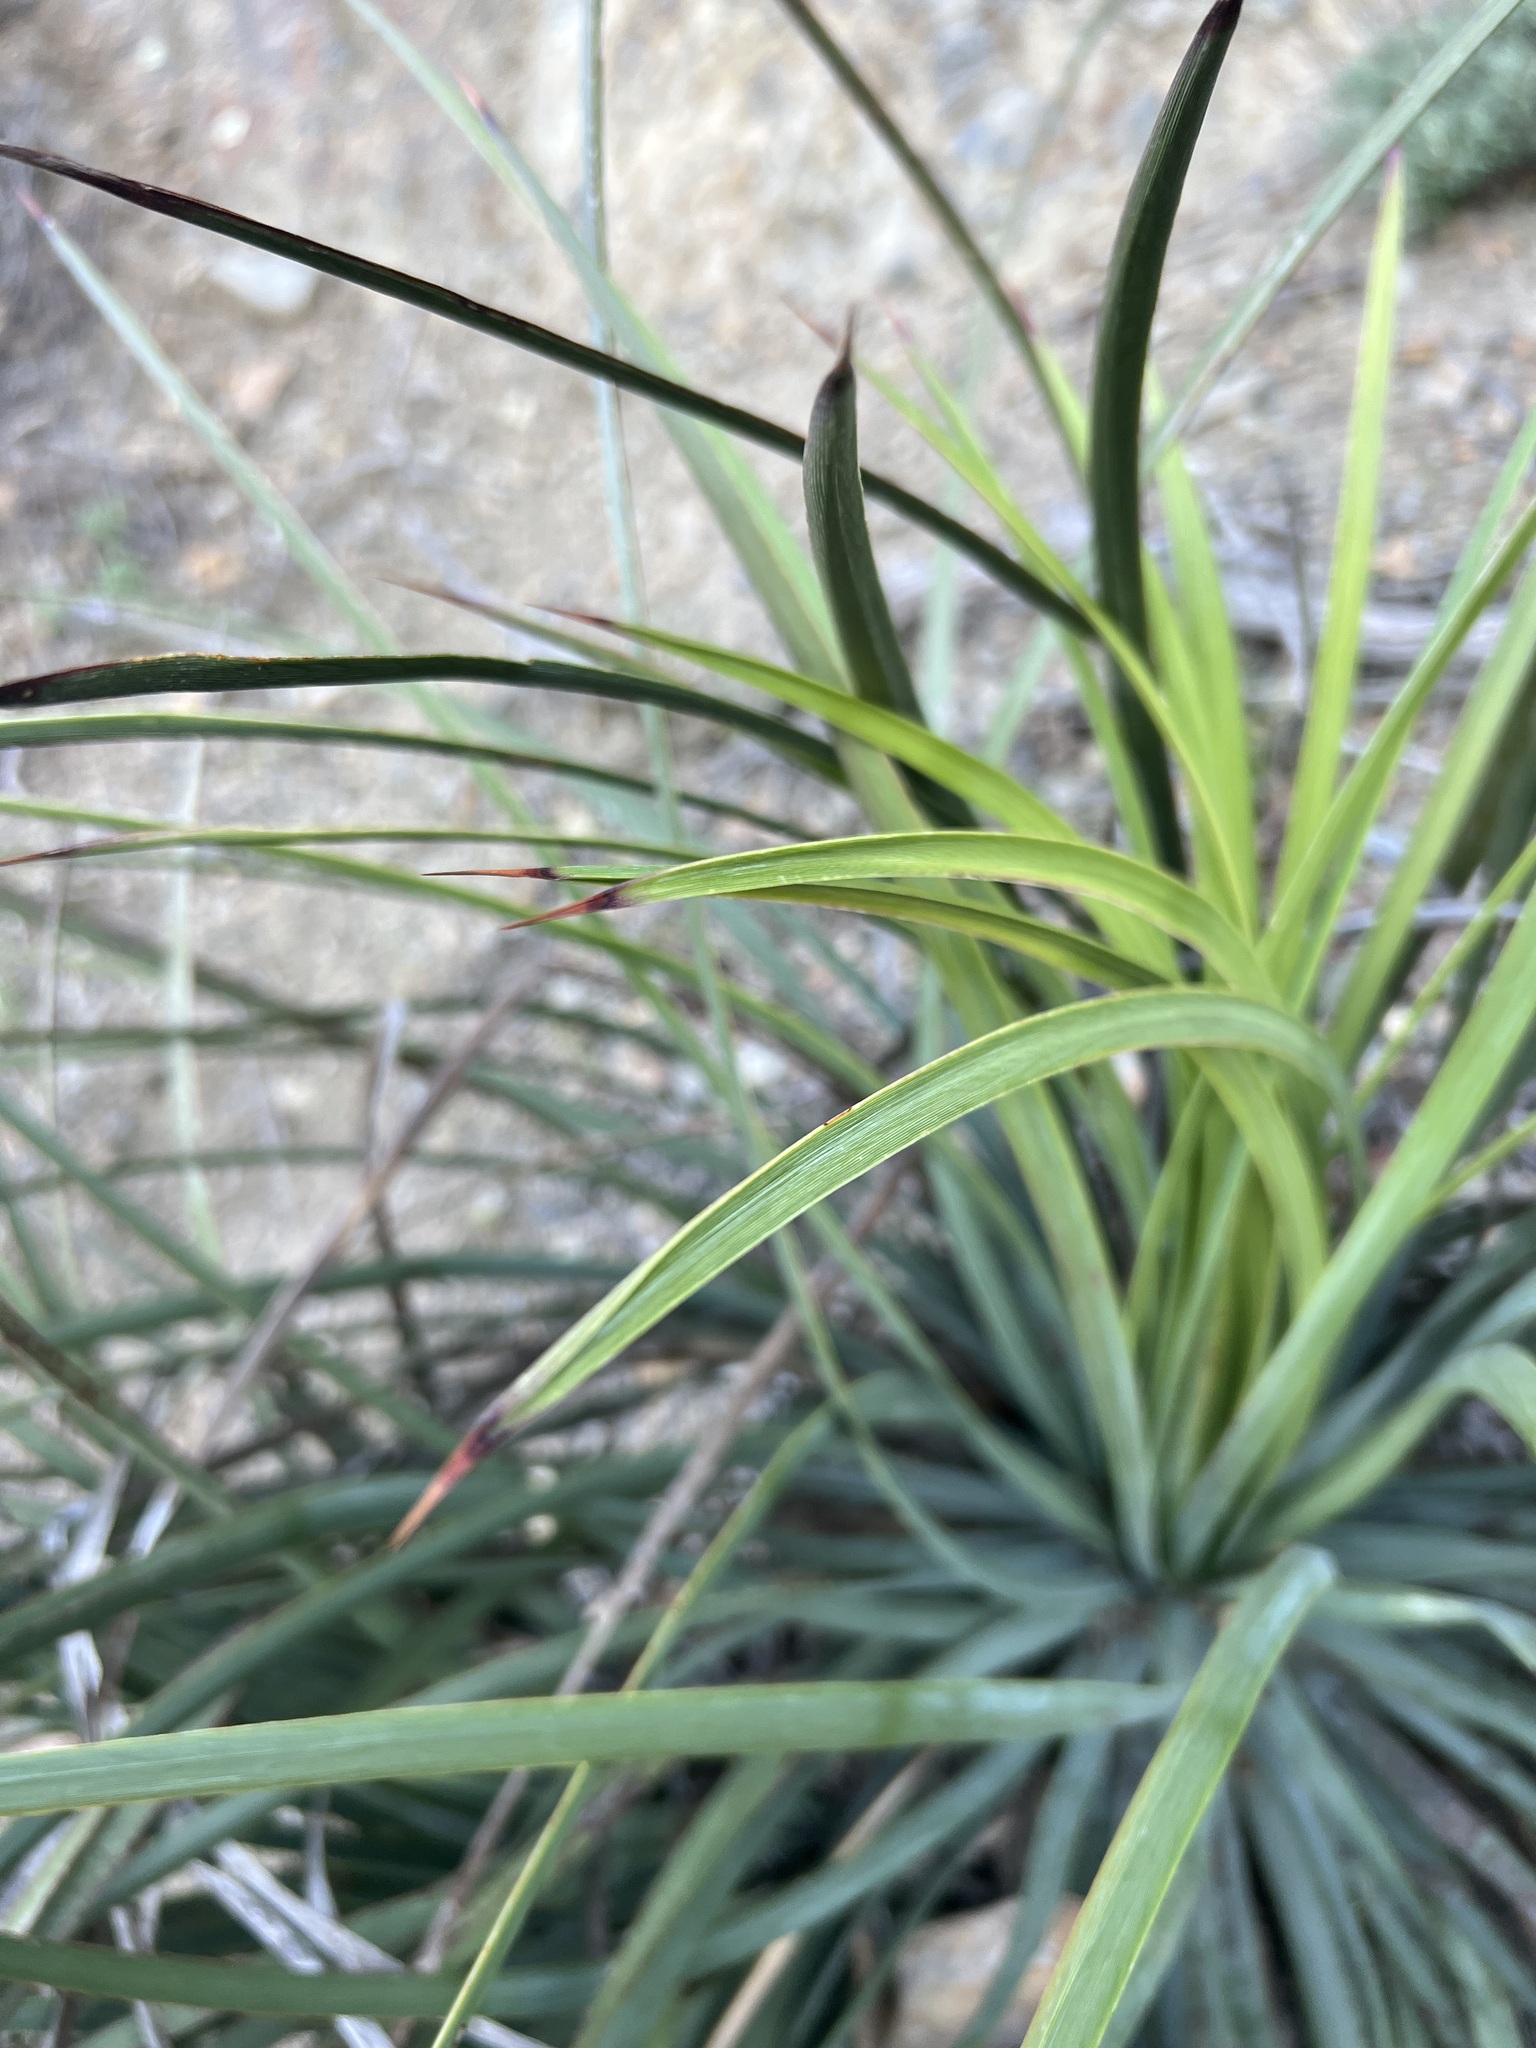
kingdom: Plantae
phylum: Tracheophyta
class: Liliopsida
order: Asparagales
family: Asparagaceae
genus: Hesperoyucca
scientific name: Hesperoyucca whipplei
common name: Our lord's-candle
